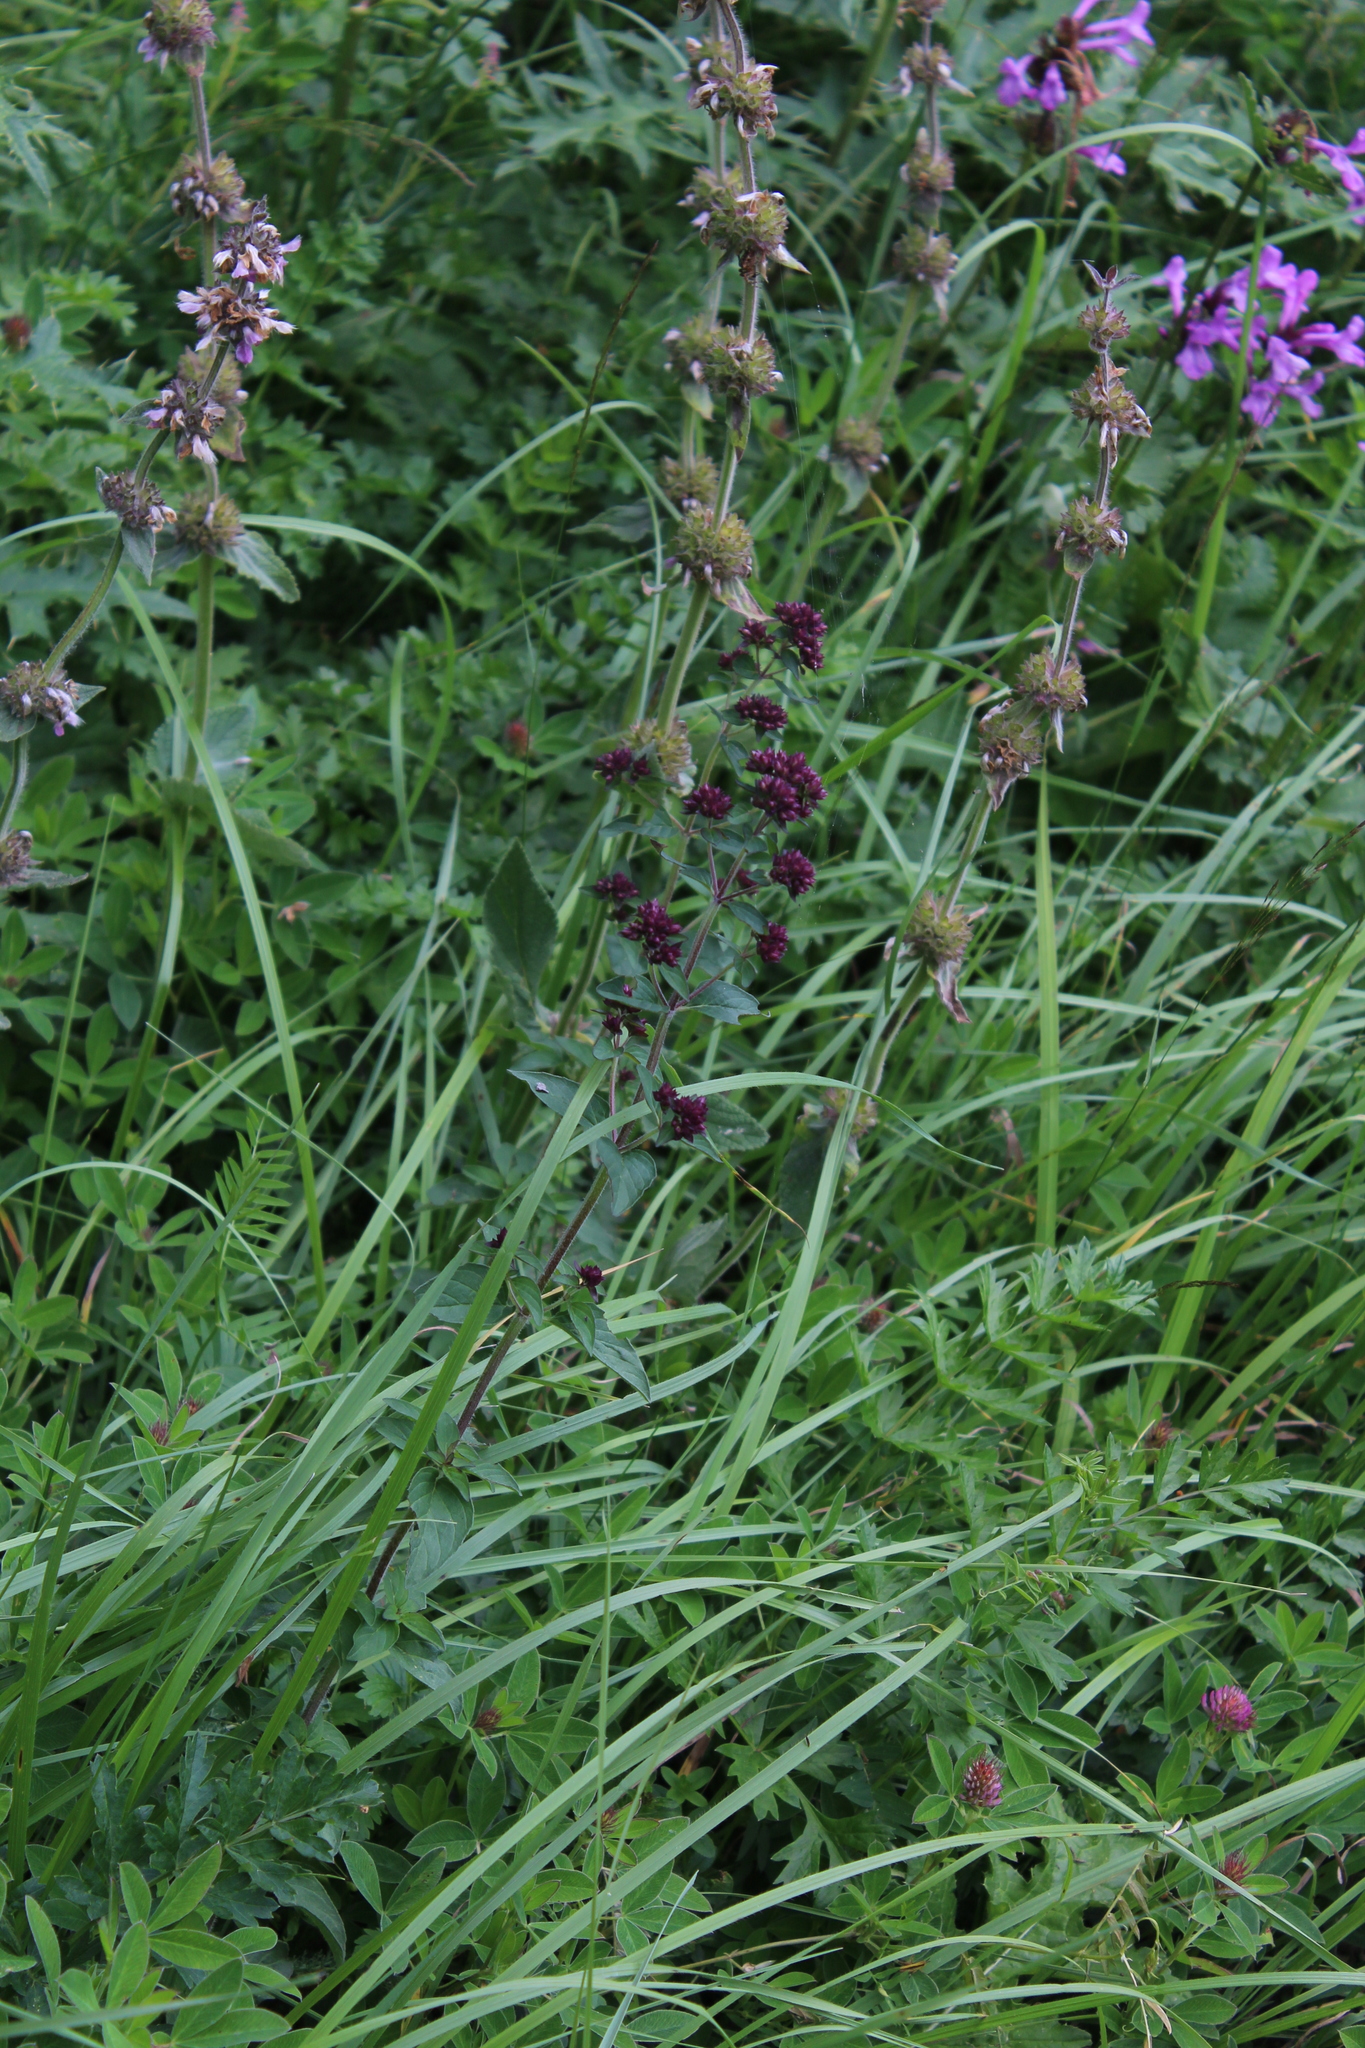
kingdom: Plantae
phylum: Tracheophyta
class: Magnoliopsida
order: Lamiales
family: Lamiaceae
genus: Origanum
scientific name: Origanum vulgare
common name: Wild marjoram
